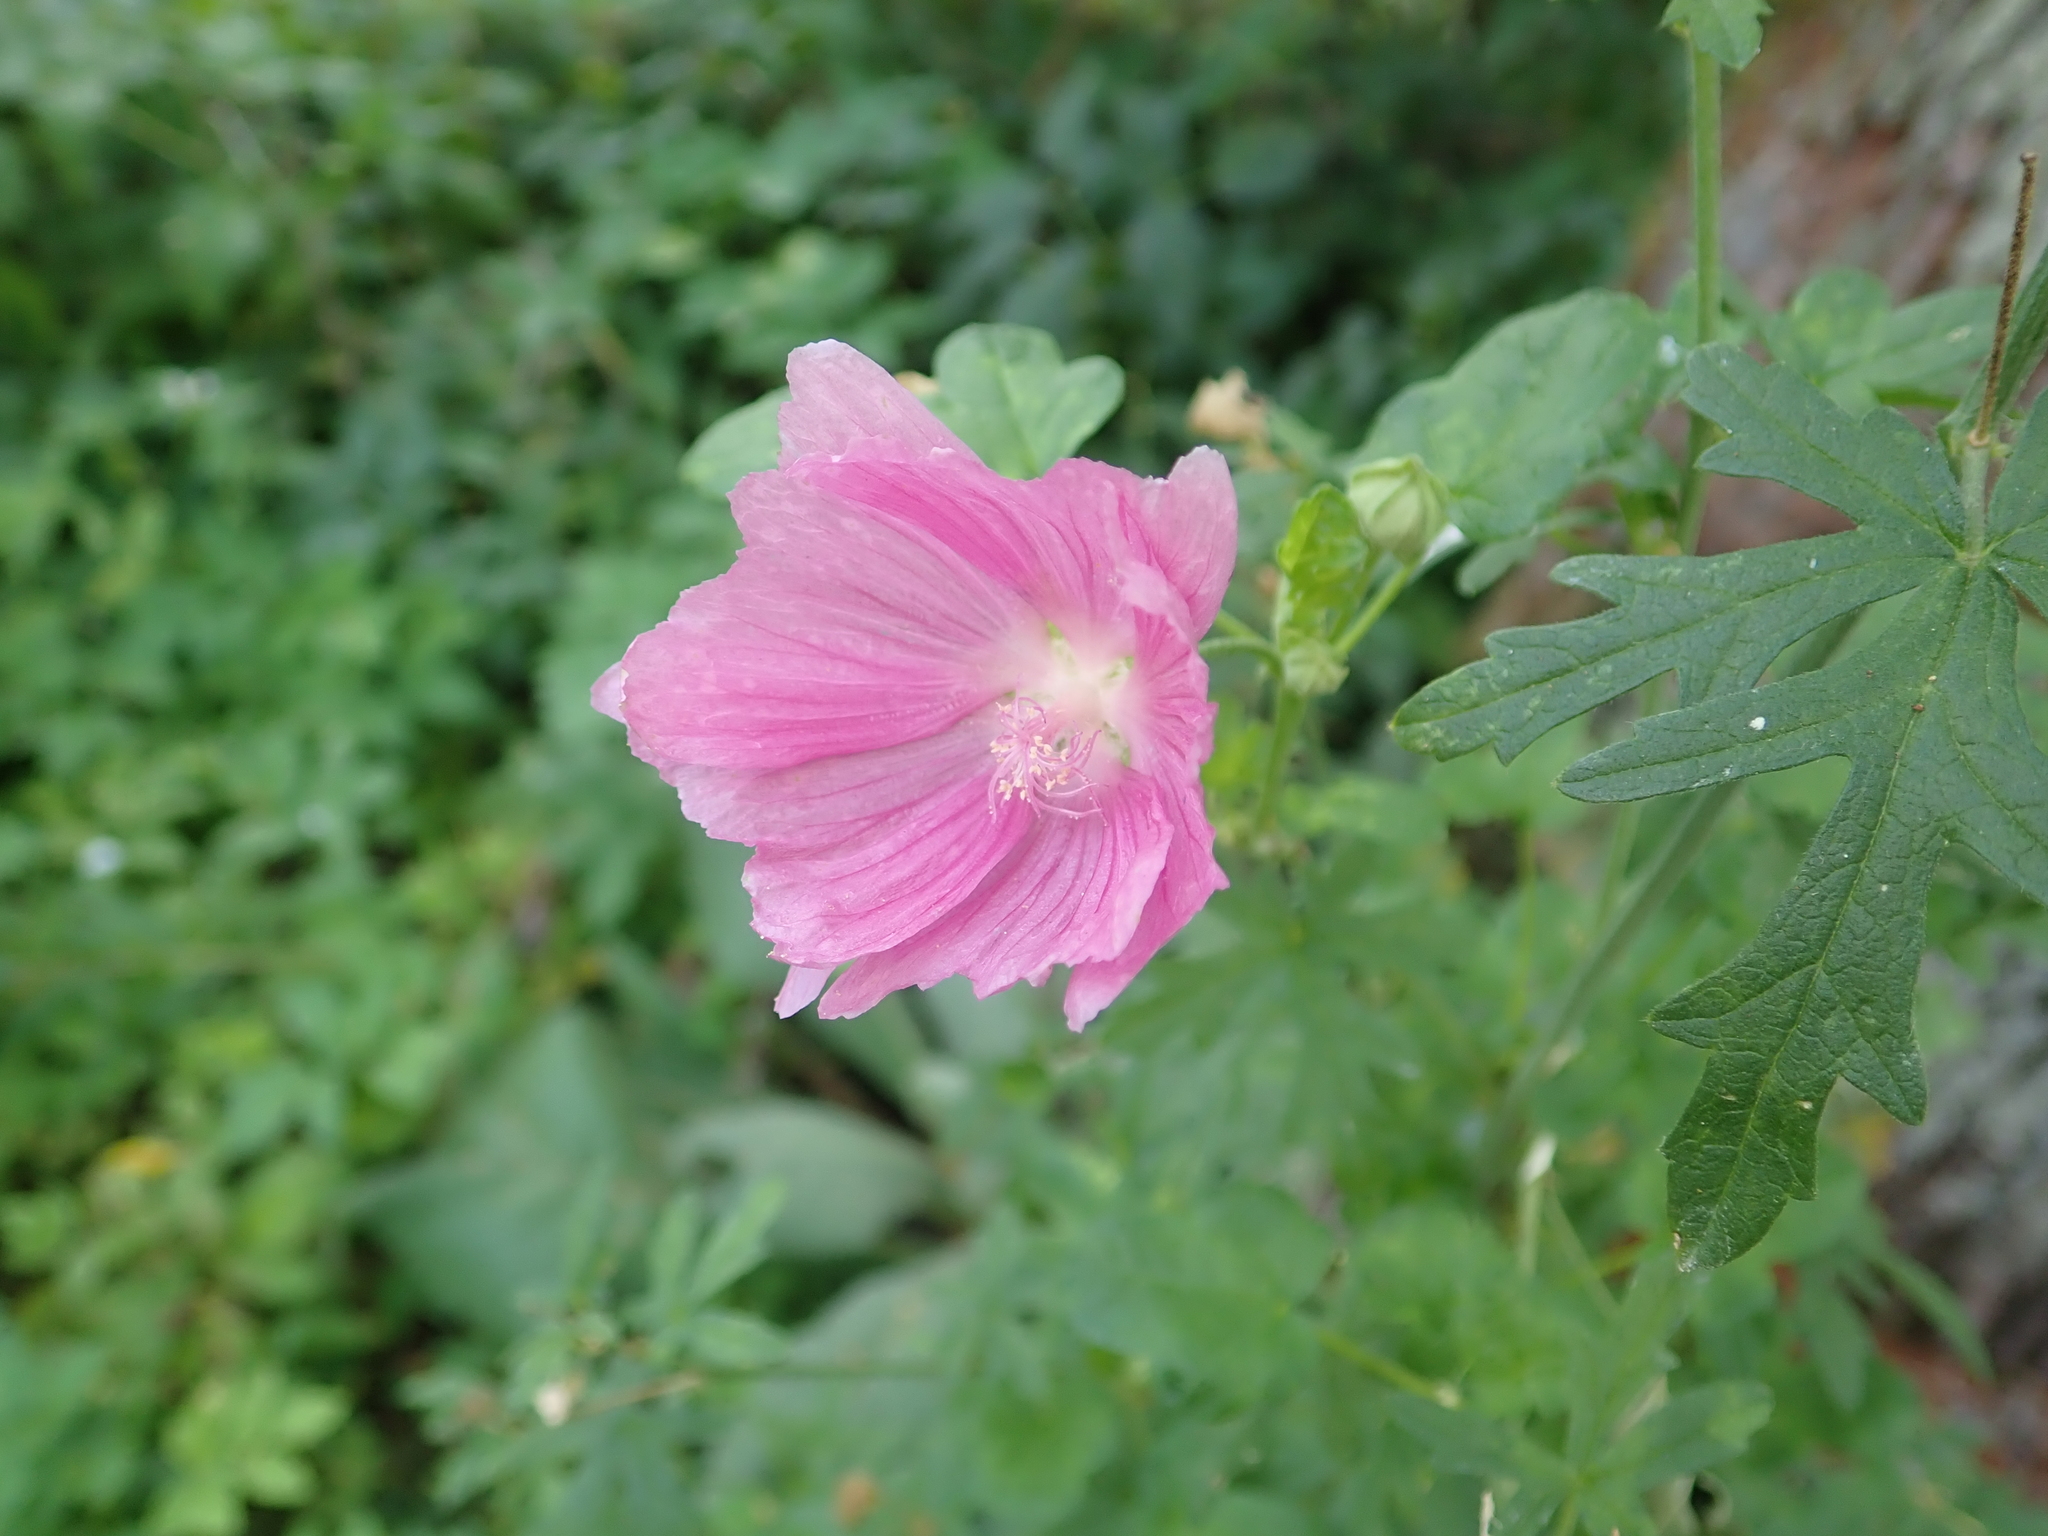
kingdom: Plantae
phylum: Tracheophyta
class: Magnoliopsida
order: Malvales
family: Malvaceae
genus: Malva
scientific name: Malva moschata
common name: Musk mallow
